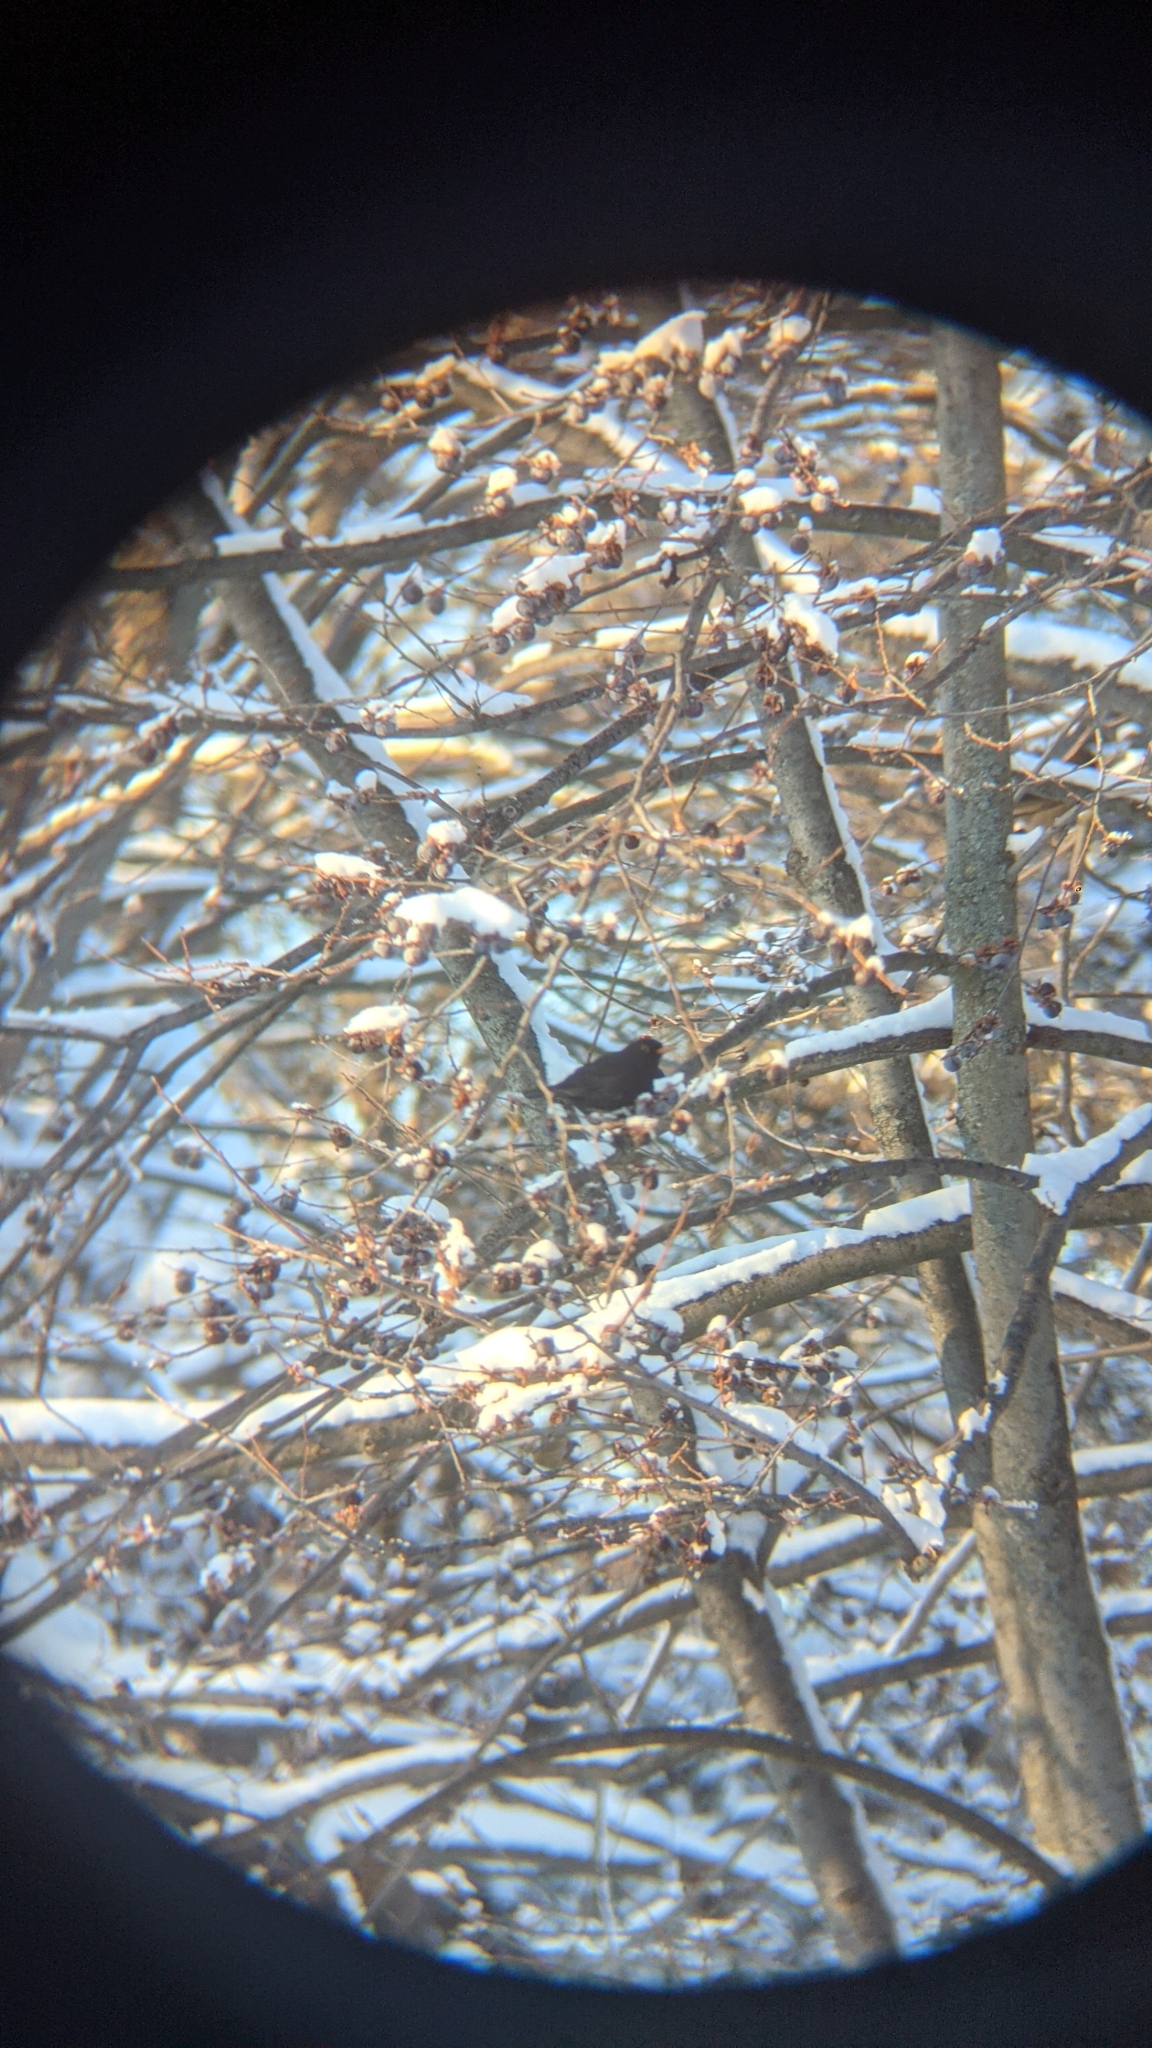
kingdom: Animalia
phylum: Chordata
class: Aves
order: Passeriformes
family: Turdidae
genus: Turdus
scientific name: Turdus merula
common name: Common blackbird
